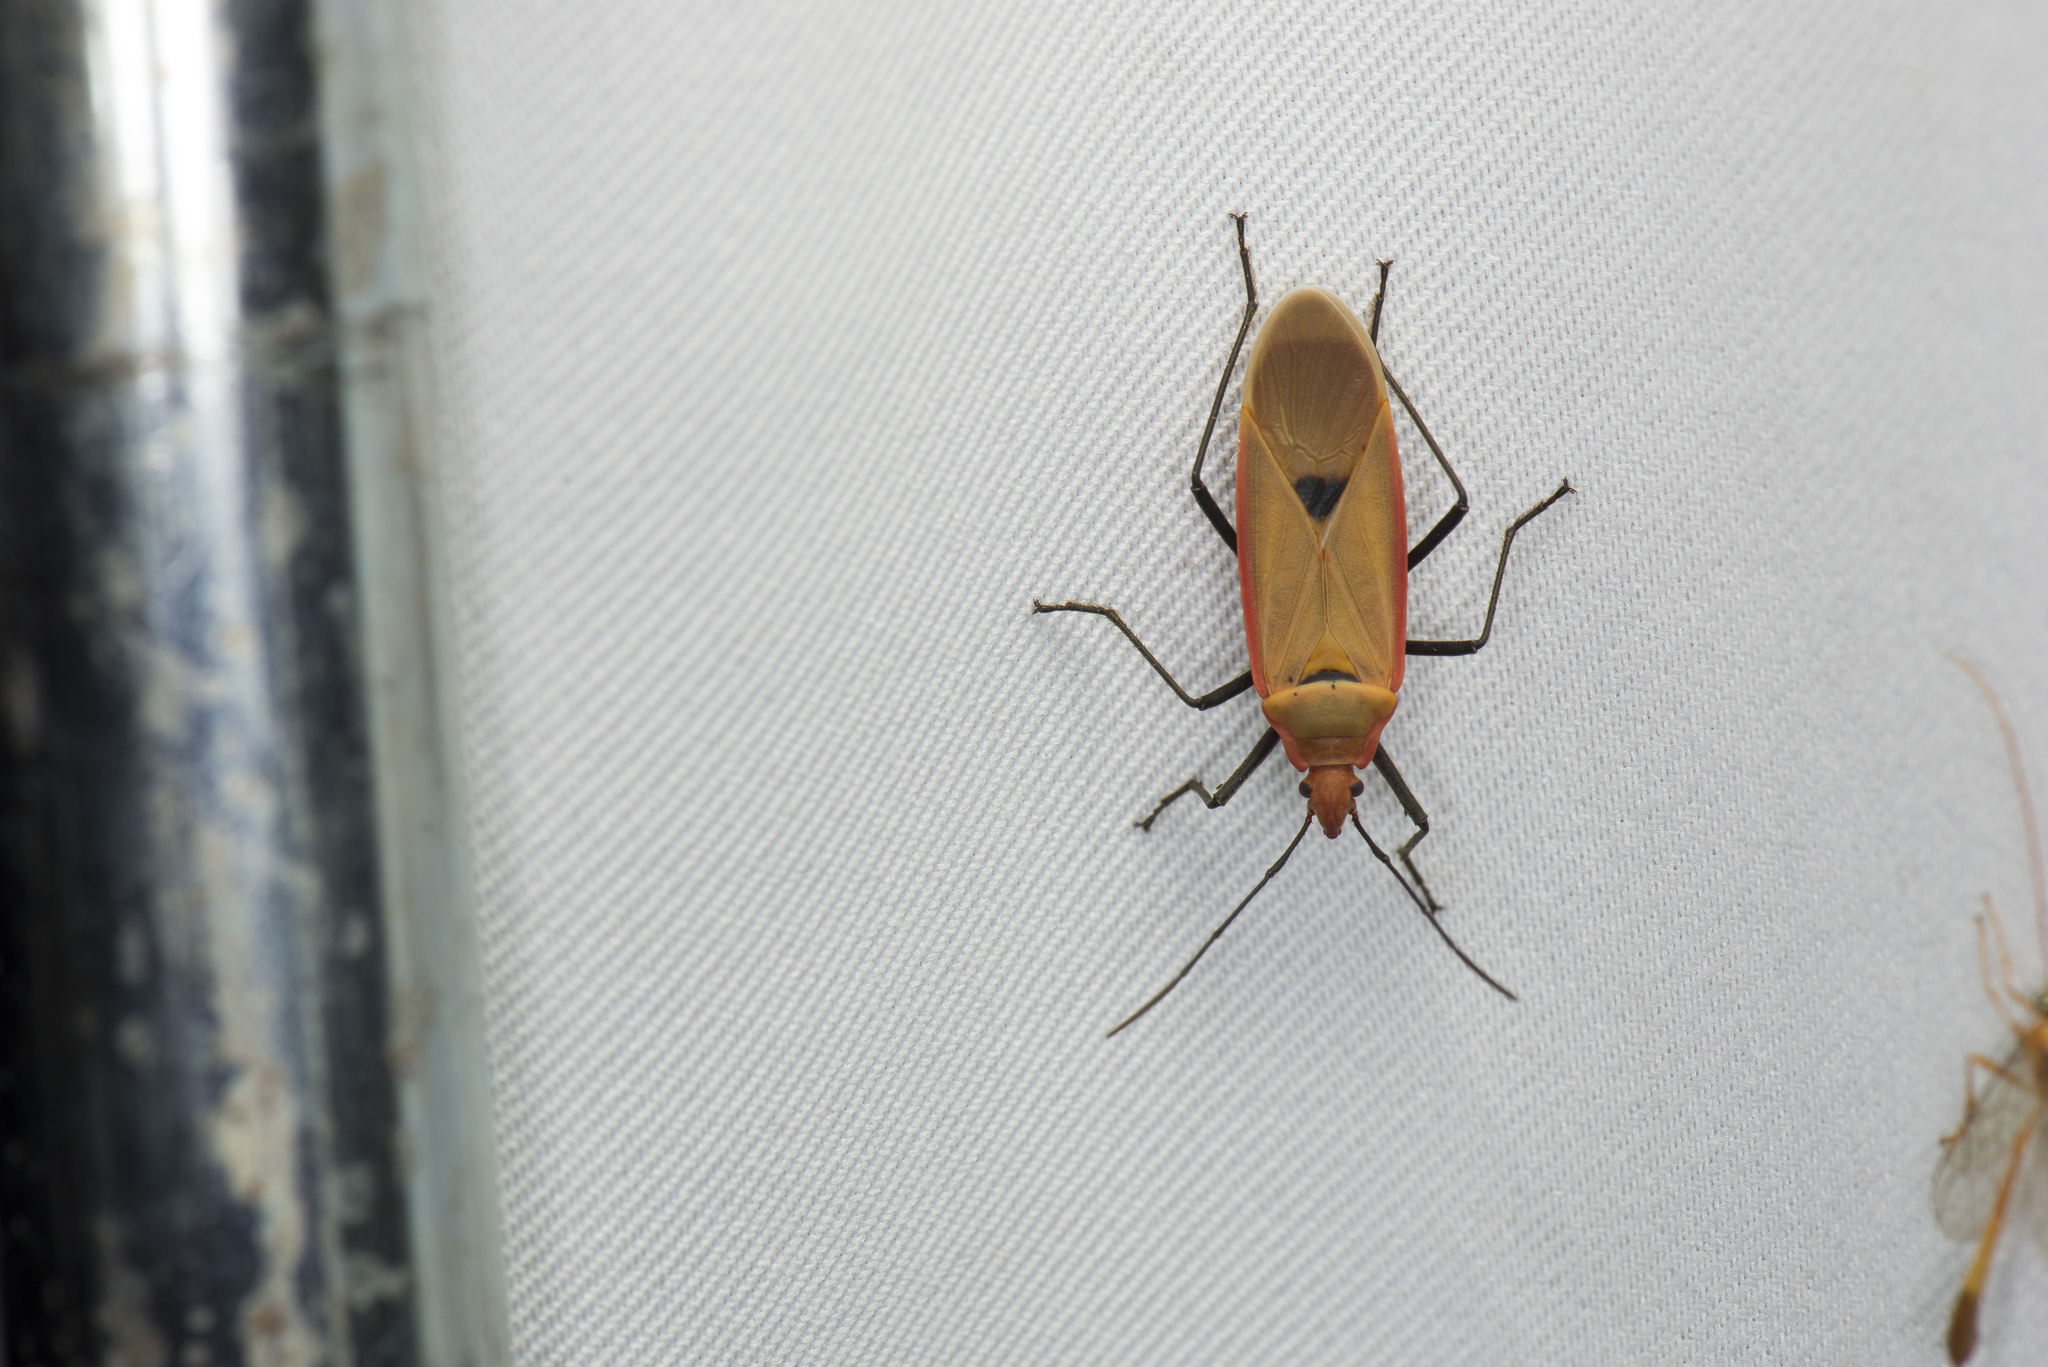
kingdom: Animalia
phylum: Arthropoda
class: Insecta
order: Hemiptera
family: Pyrrhocoridae
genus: Dysdercus
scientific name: Dysdercus fuscomaculatus
